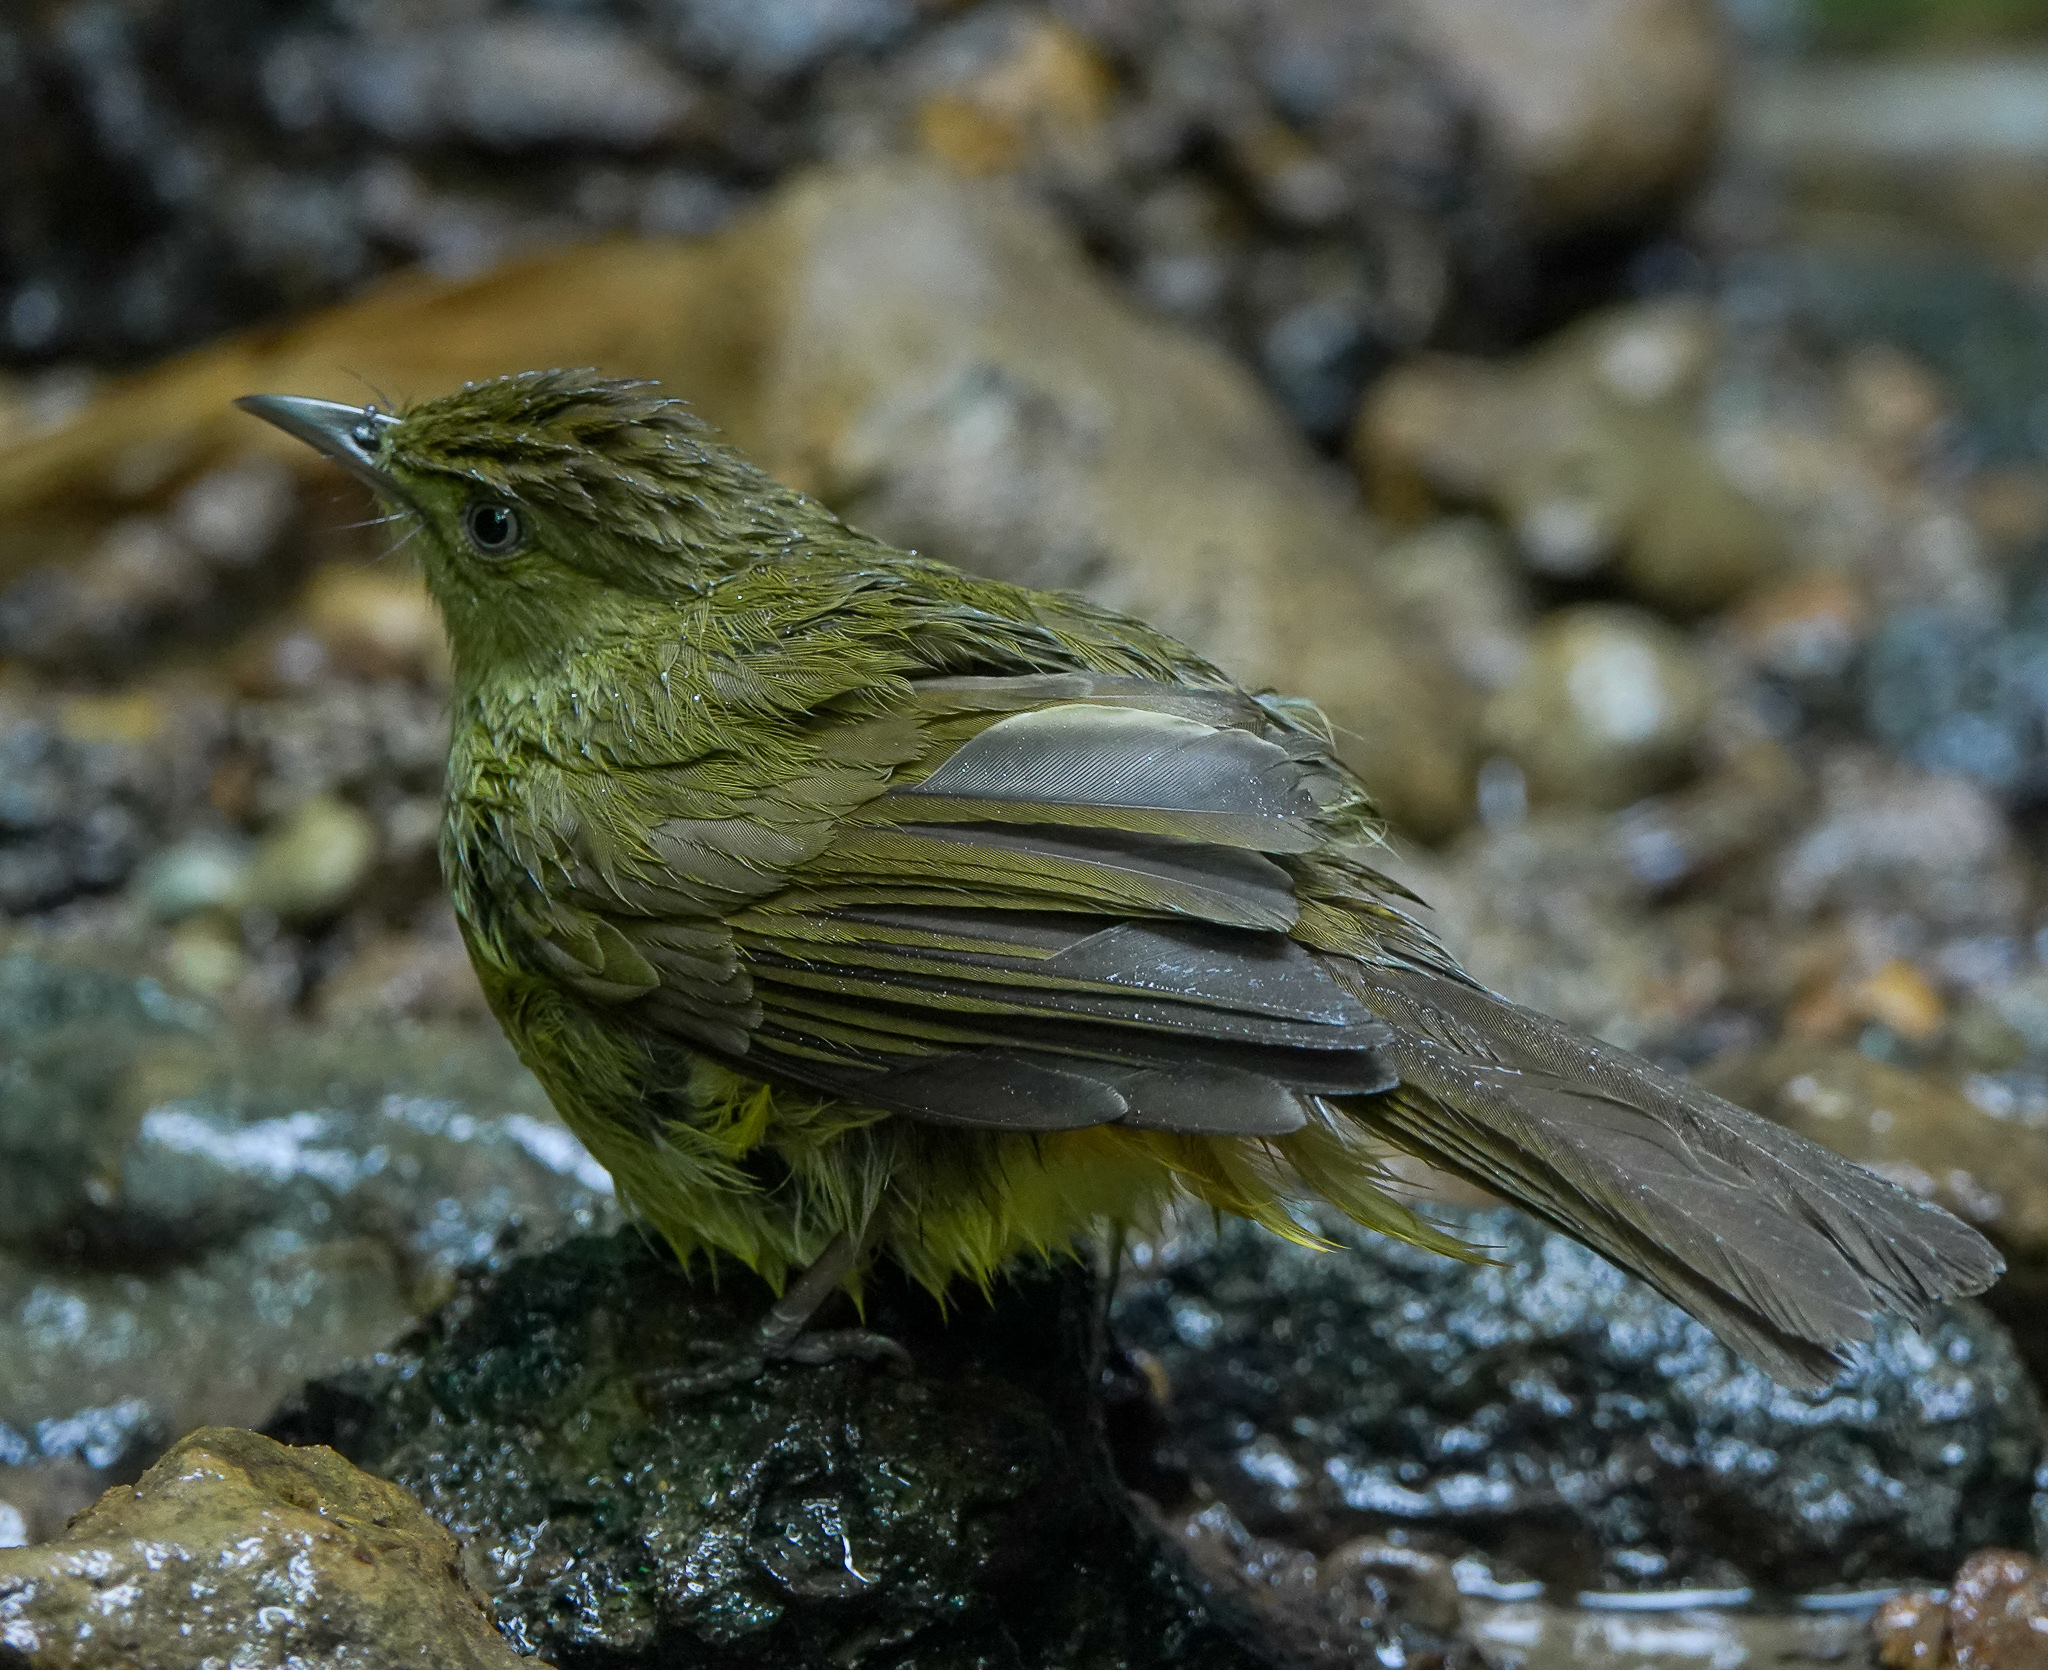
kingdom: Animalia
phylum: Chordata
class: Aves
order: Passeriformes
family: Pycnonotidae
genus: Iole
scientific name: Iole virescens
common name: Olive bulbul
